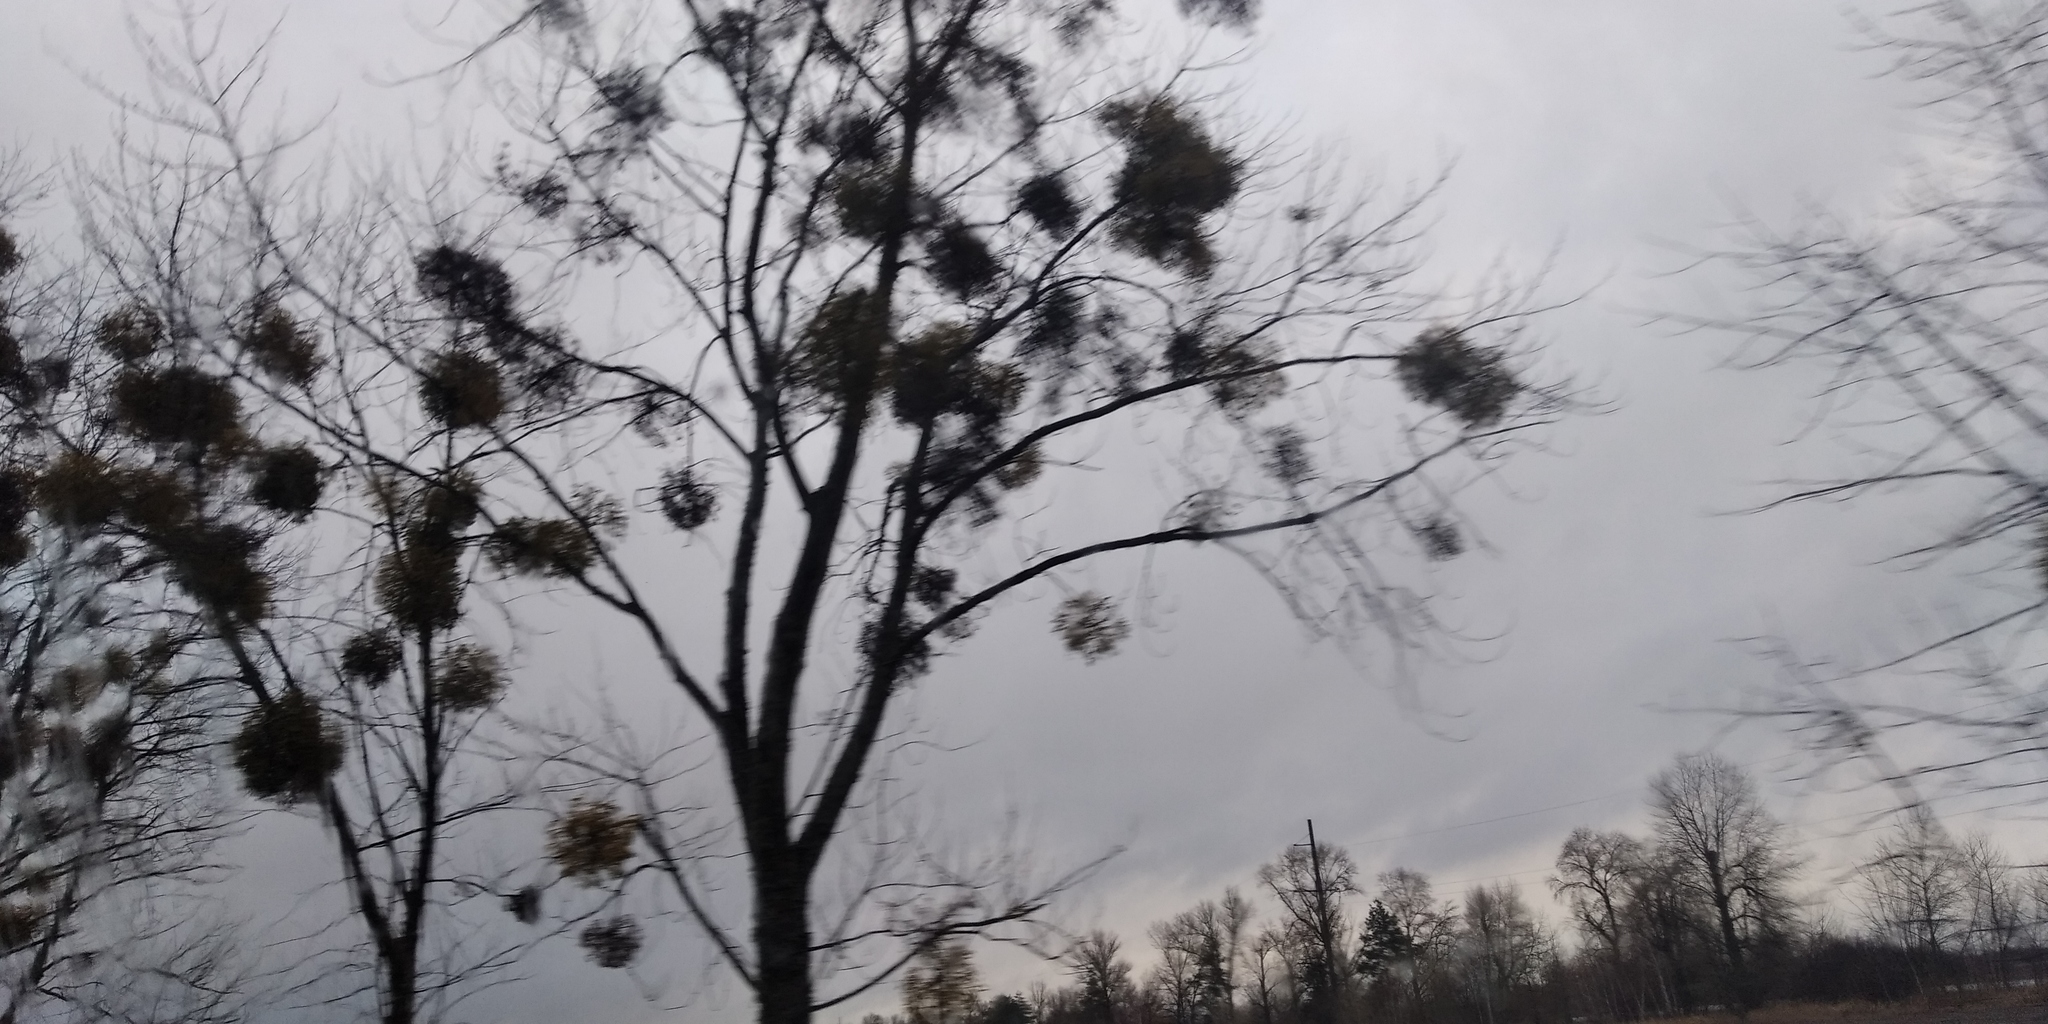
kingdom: Plantae
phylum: Tracheophyta
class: Magnoliopsida
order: Santalales
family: Viscaceae
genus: Viscum
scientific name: Viscum album
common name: Mistletoe
